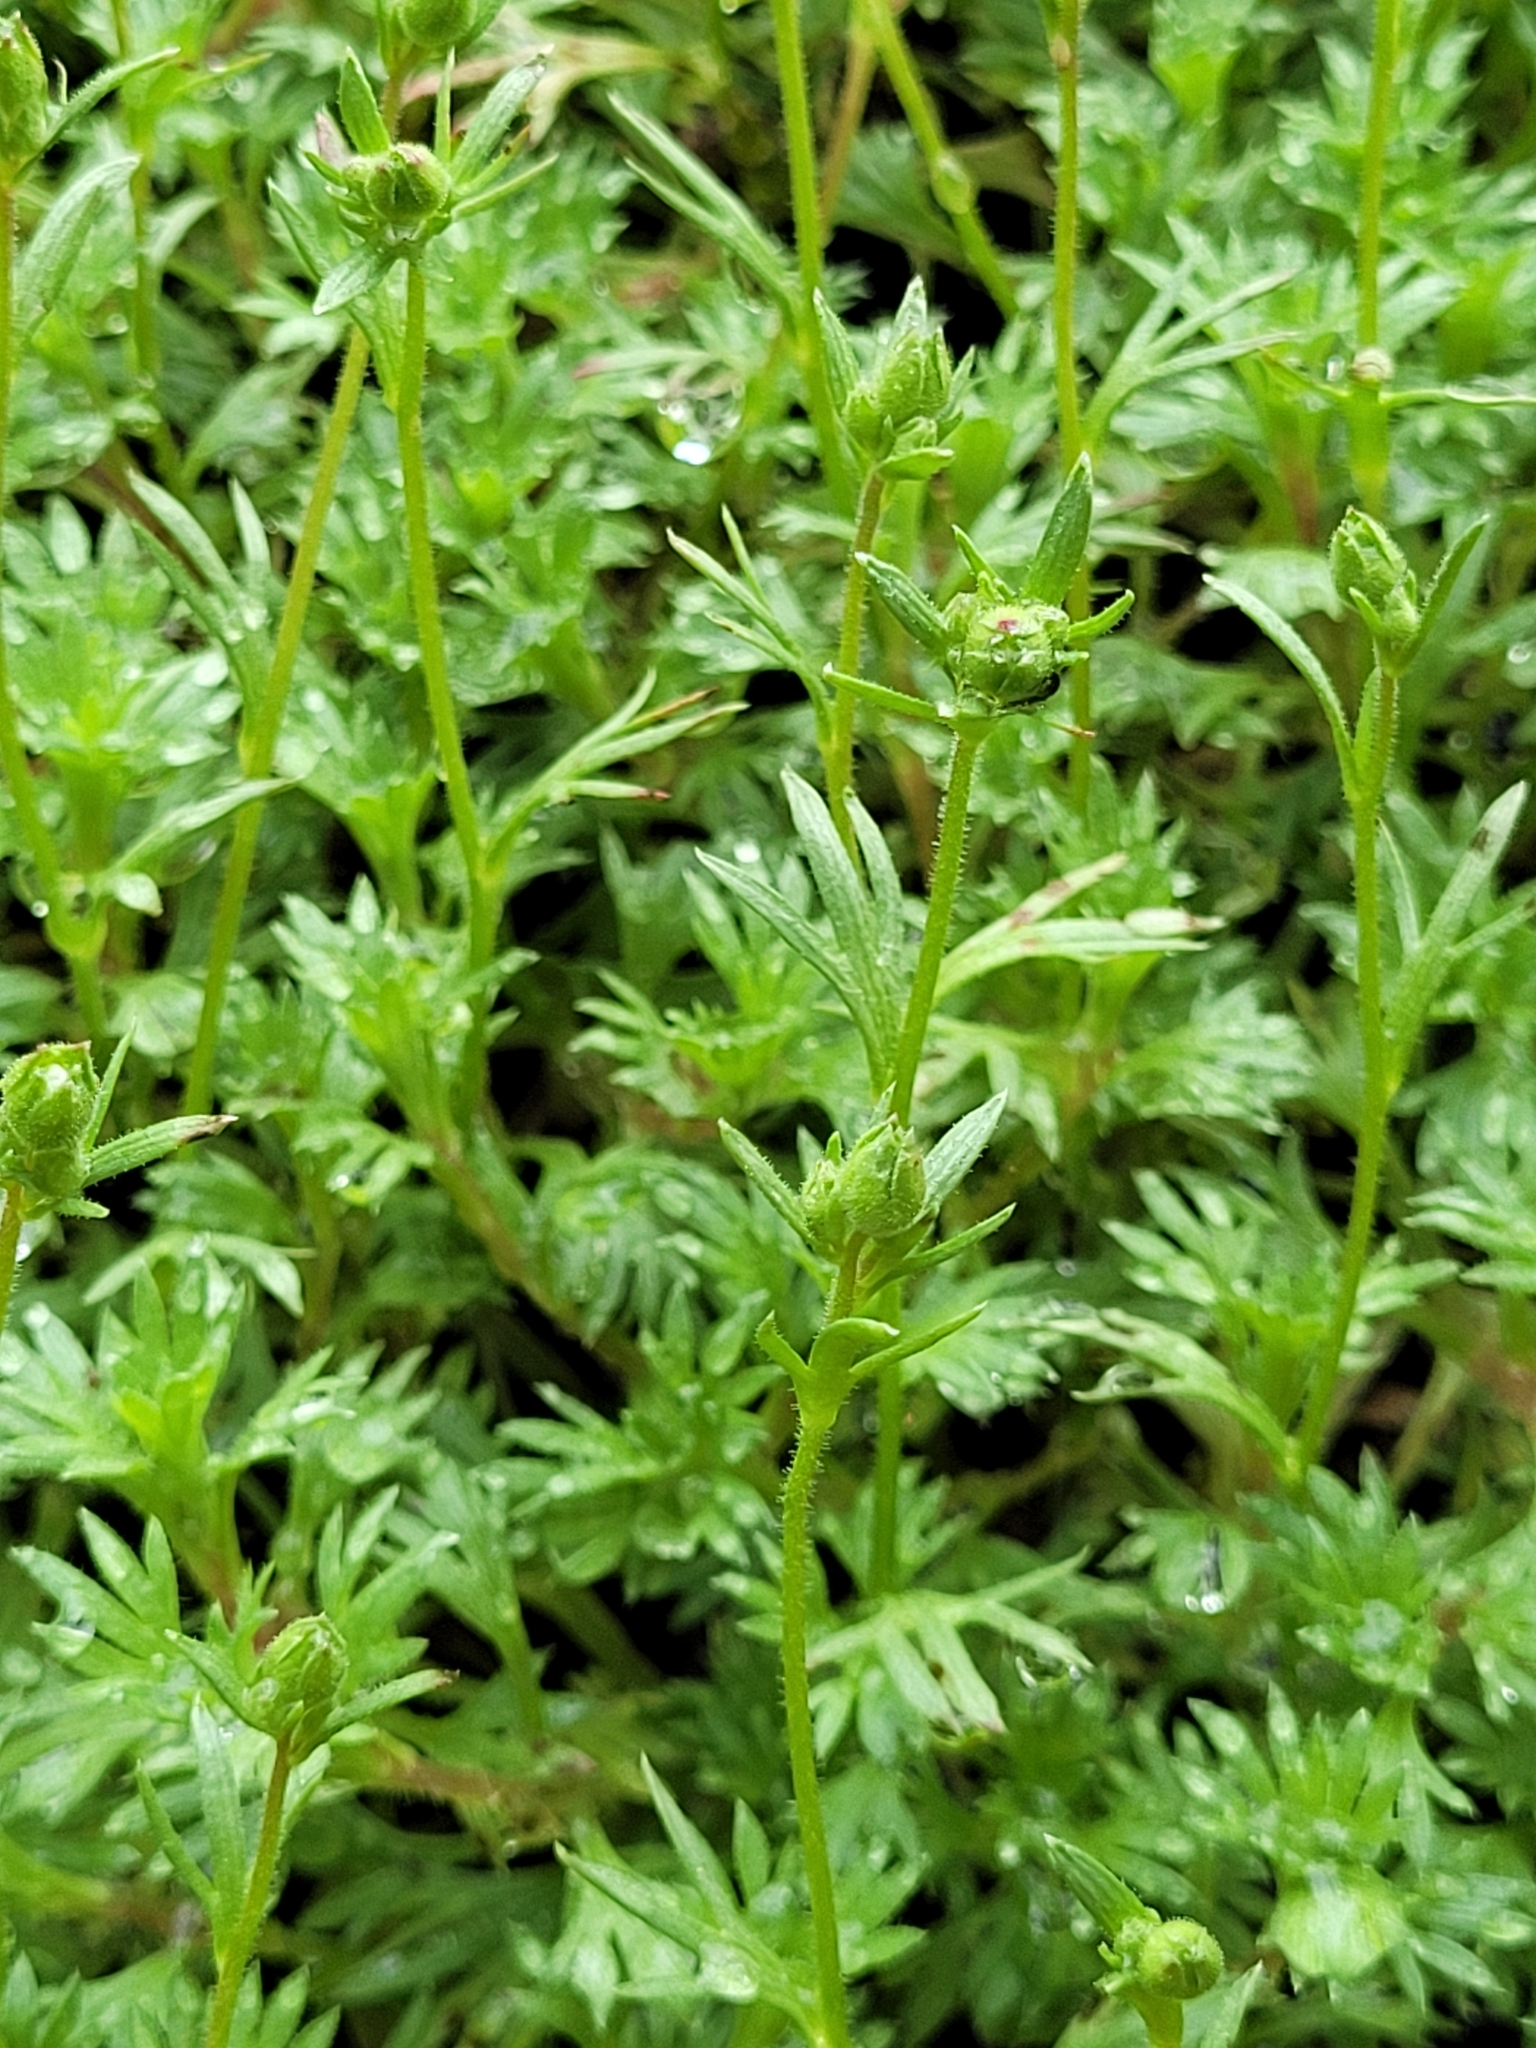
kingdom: Plantae
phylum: Tracheophyta
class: Magnoliopsida
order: Saxifragales
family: Saxifragaceae
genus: Saxifraga
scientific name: Saxifraga rosacea
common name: Irish saxifrage
